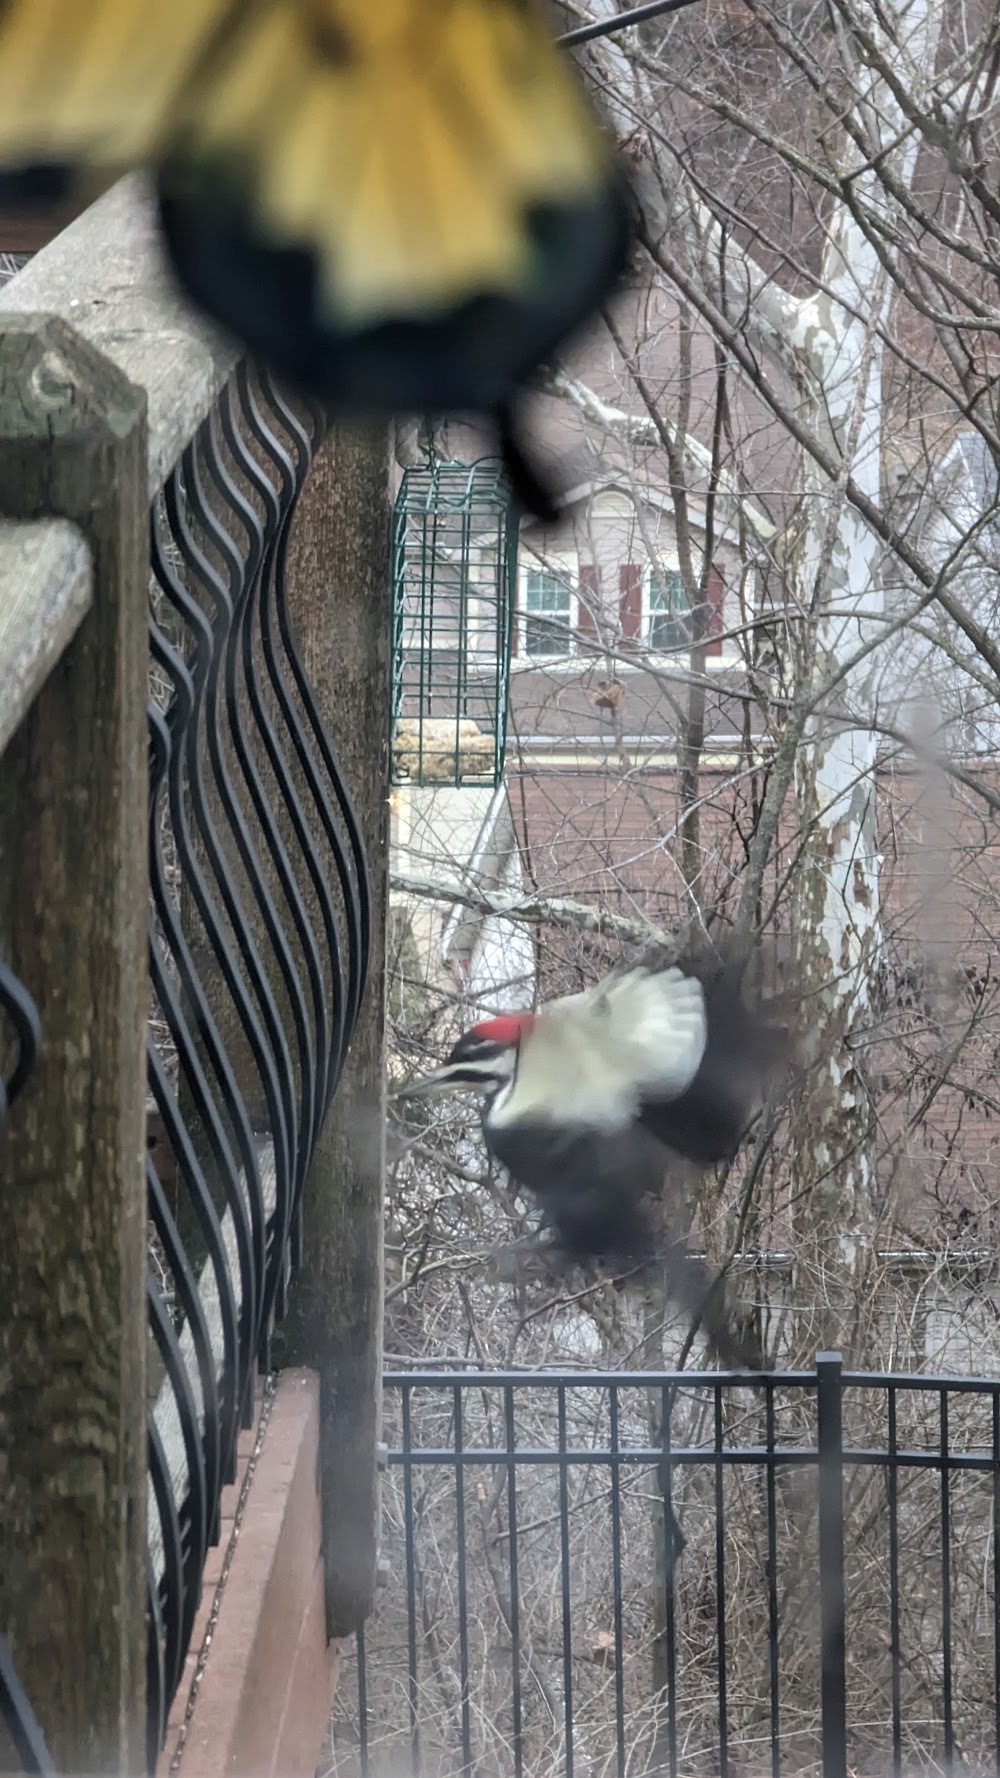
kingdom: Animalia
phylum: Chordata
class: Aves
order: Piciformes
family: Picidae
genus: Dryocopus
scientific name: Dryocopus pileatus
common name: Pileated woodpecker
